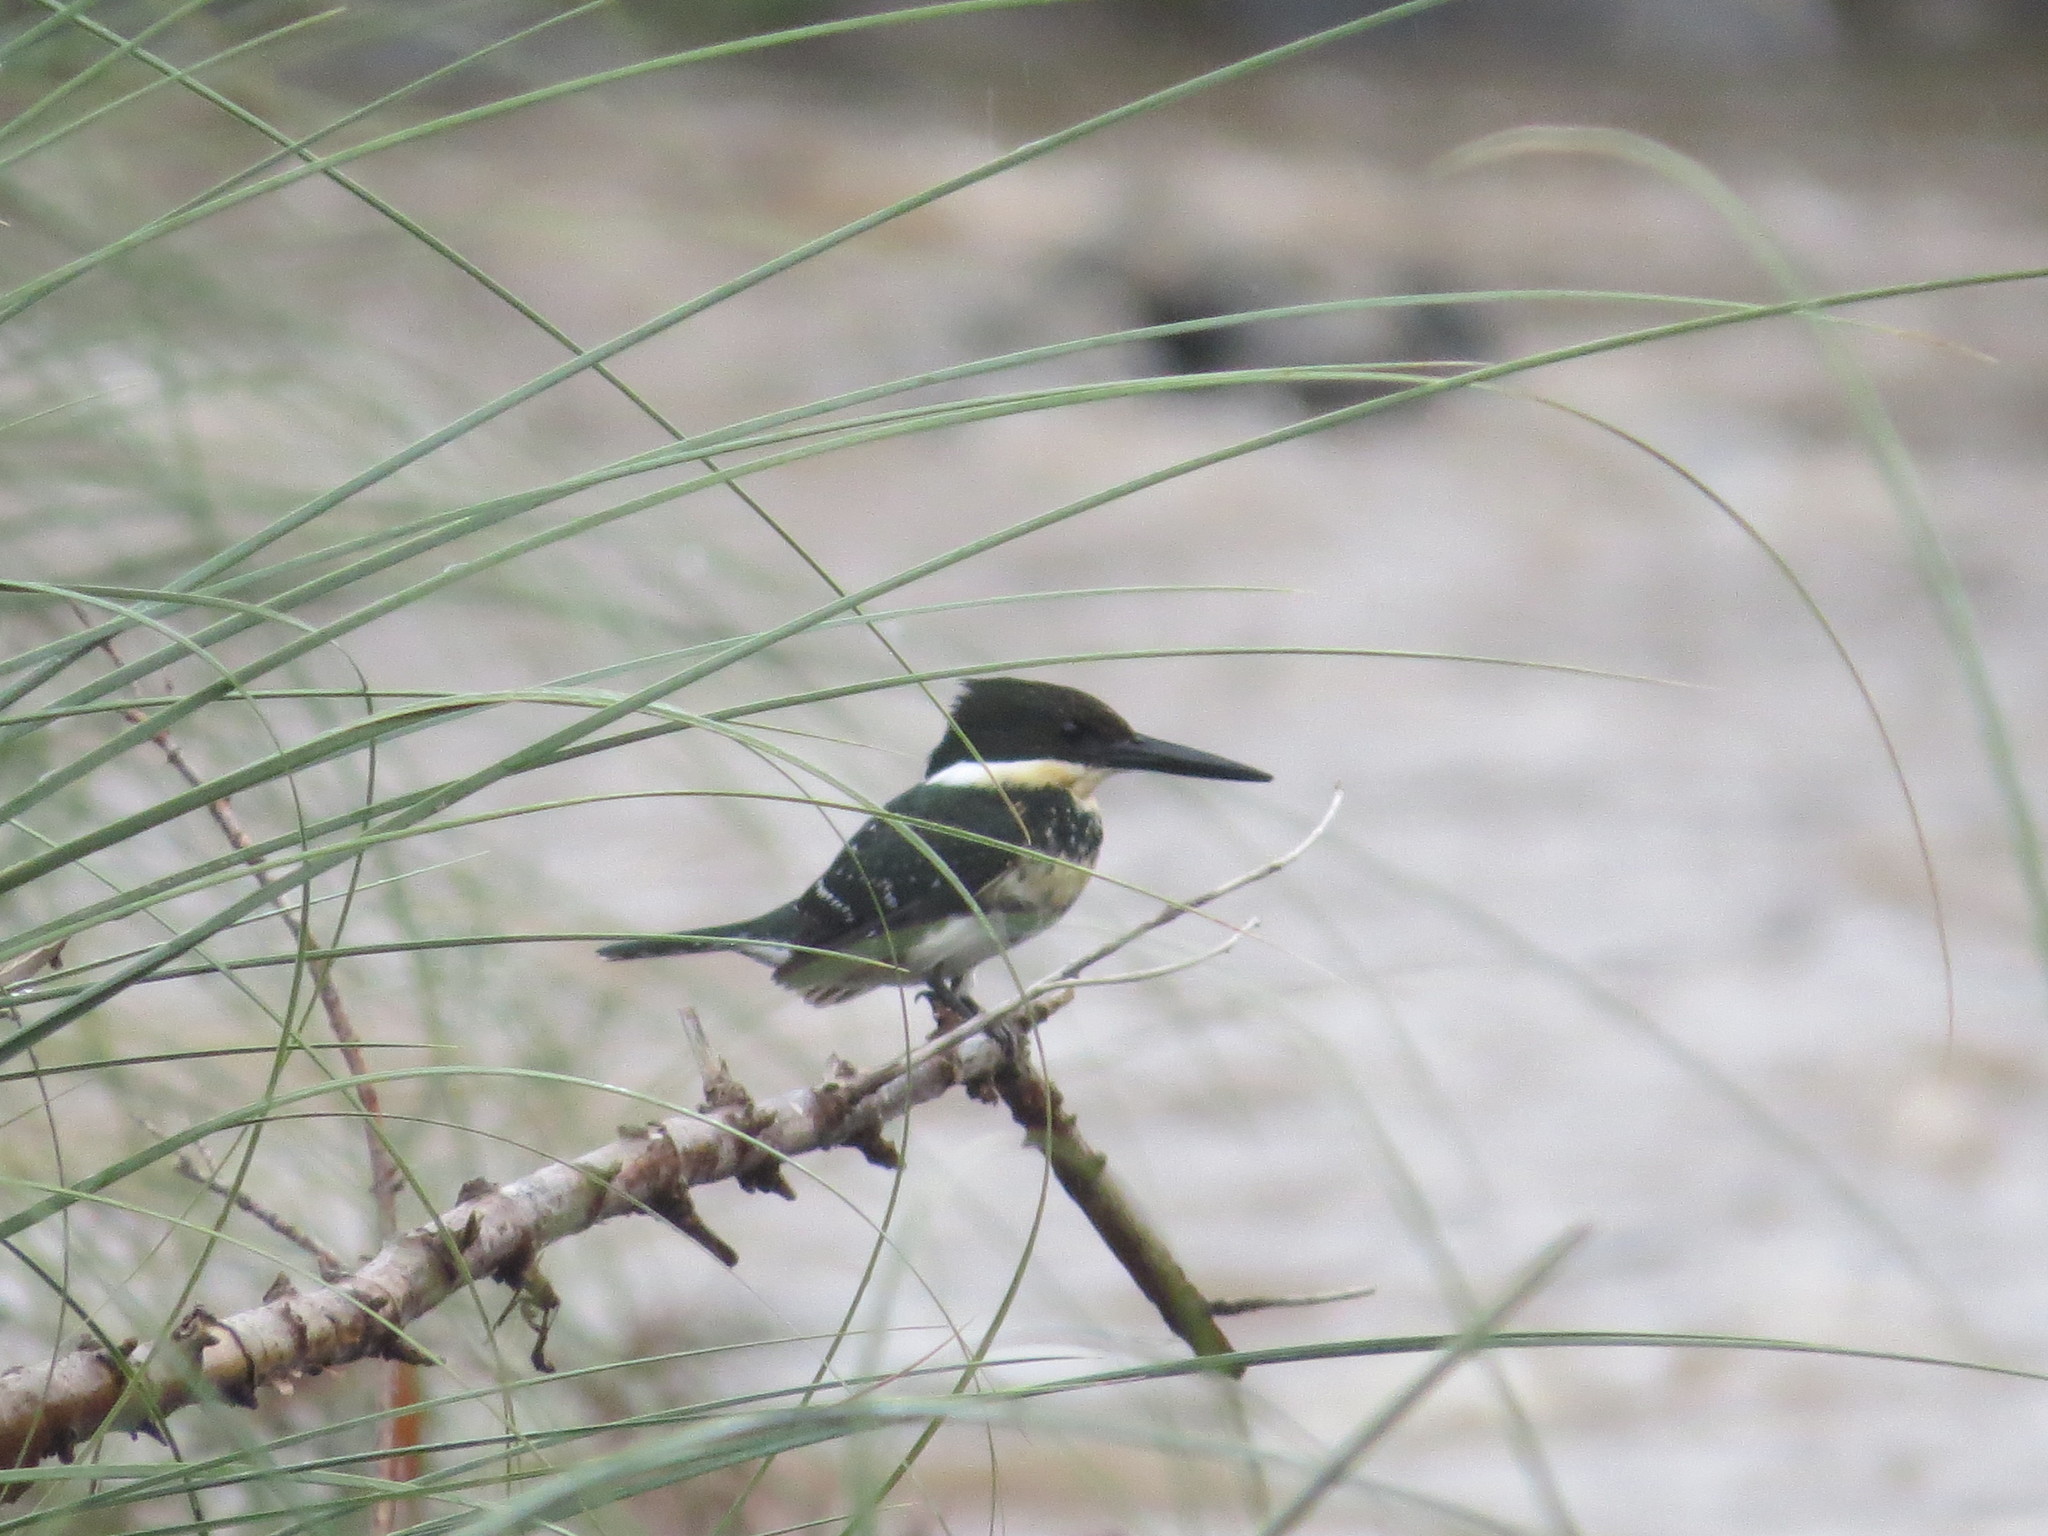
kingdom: Animalia
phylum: Chordata
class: Aves
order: Coraciiformes
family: Alcedinidae
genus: Chloroceryle
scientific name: Chloroceryle americana
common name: Green kingfisher
